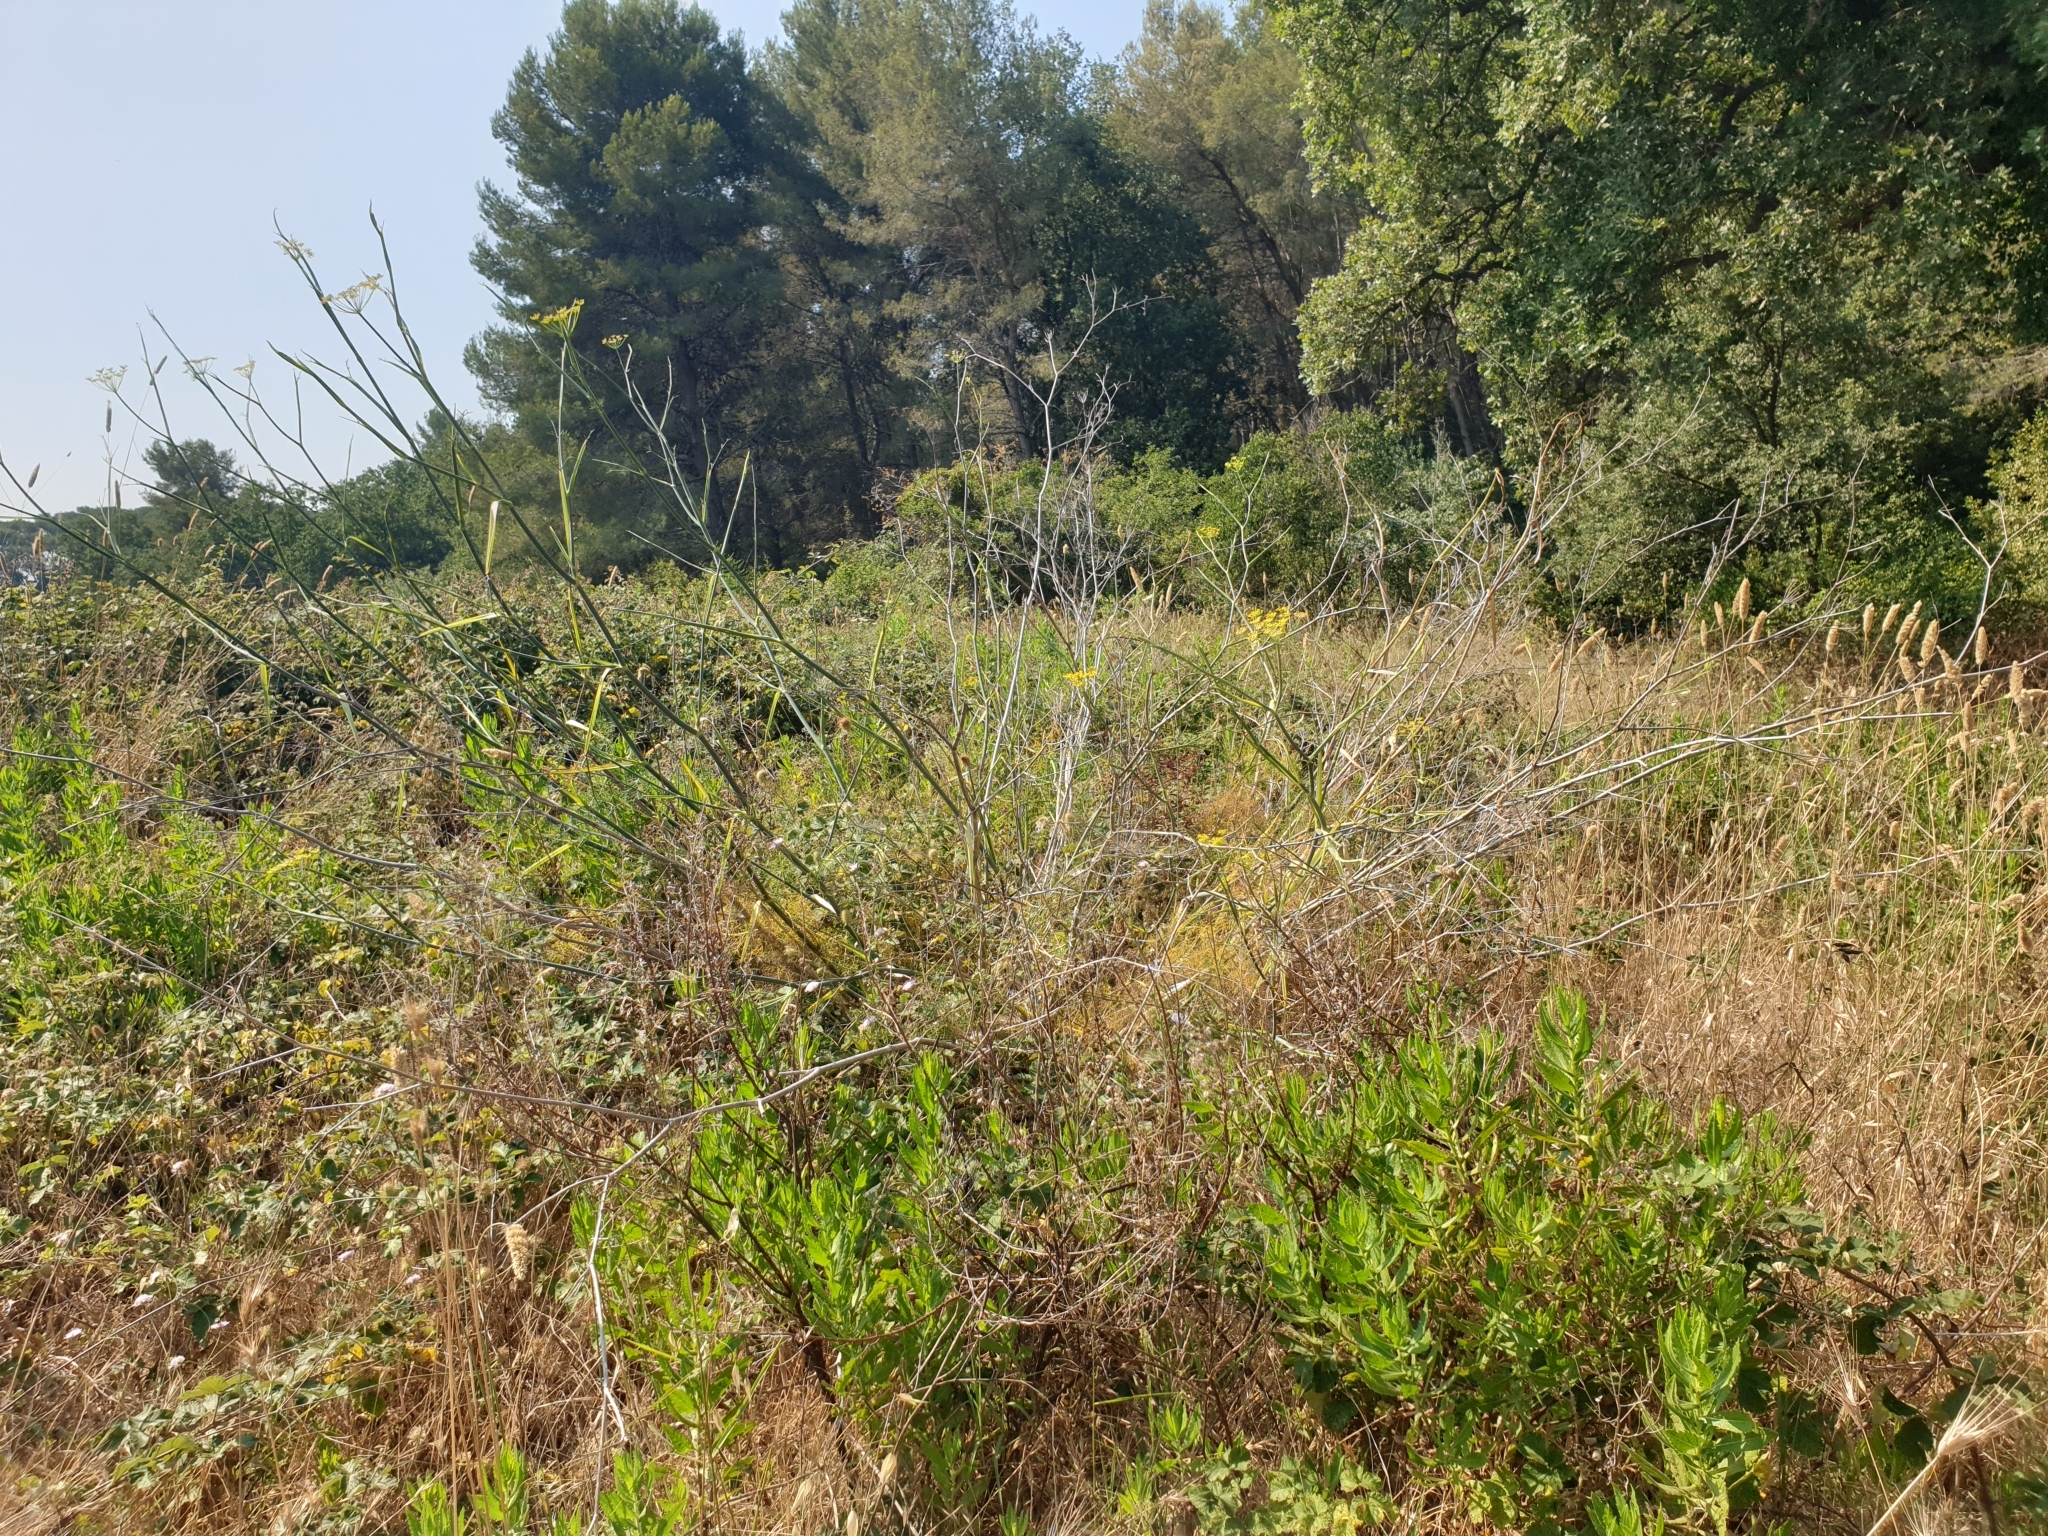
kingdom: Plantae
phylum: Tracheophyta
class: Magnoliopsida
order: Apiales
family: Apiaceae
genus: Foeniculum
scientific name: Foeniculum vulgare
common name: Fennel
